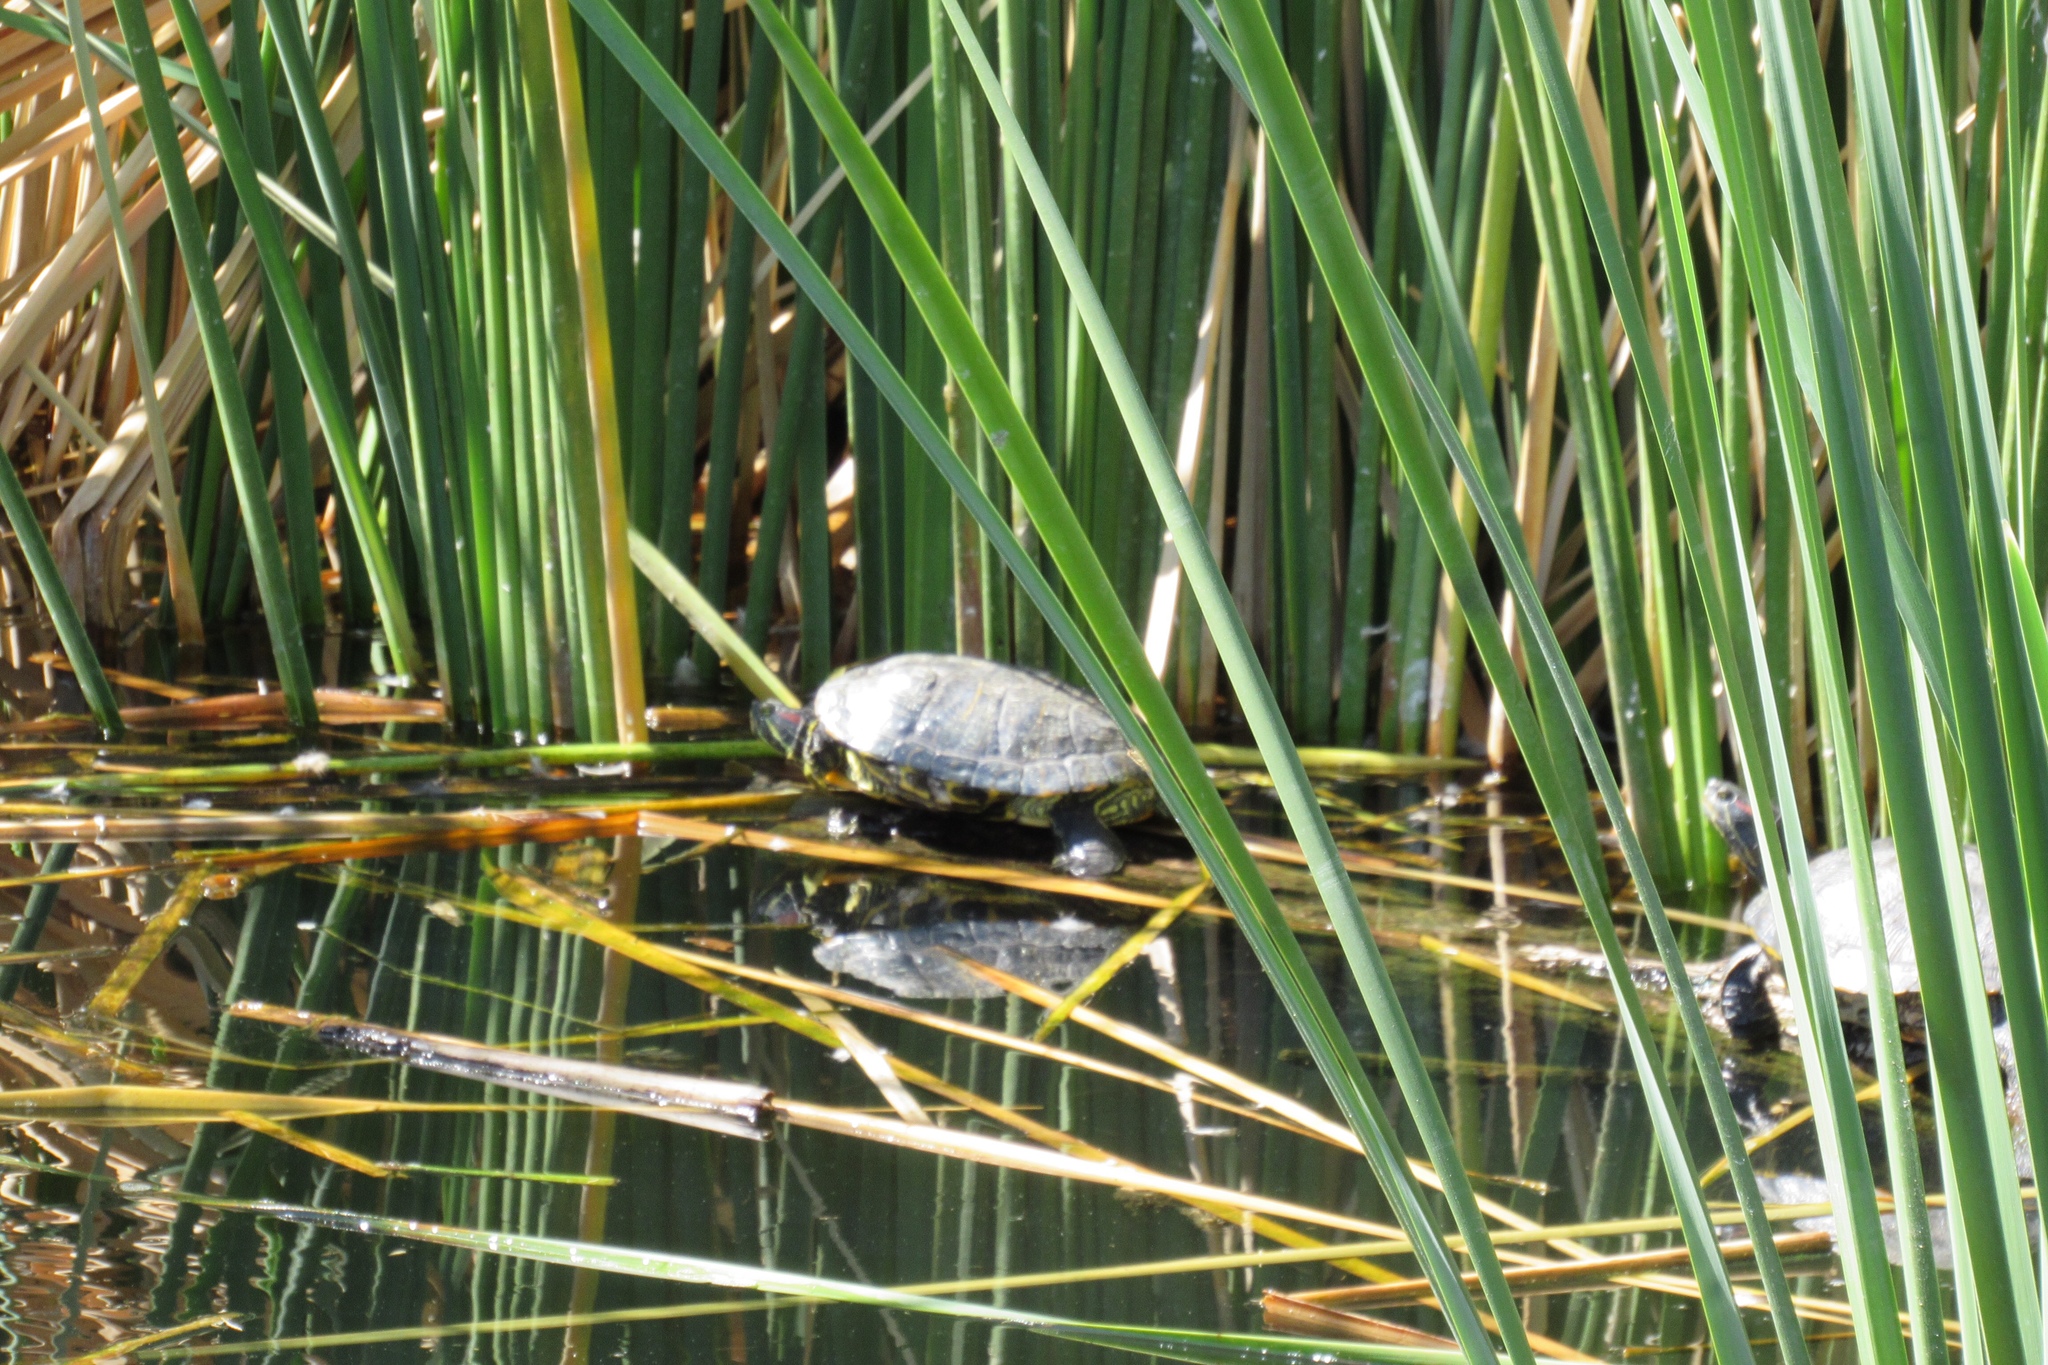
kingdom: Animalia
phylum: Chordata
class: Testudines
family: Emydidae
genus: Trachemys
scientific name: Trachemys scripta
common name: Slider
